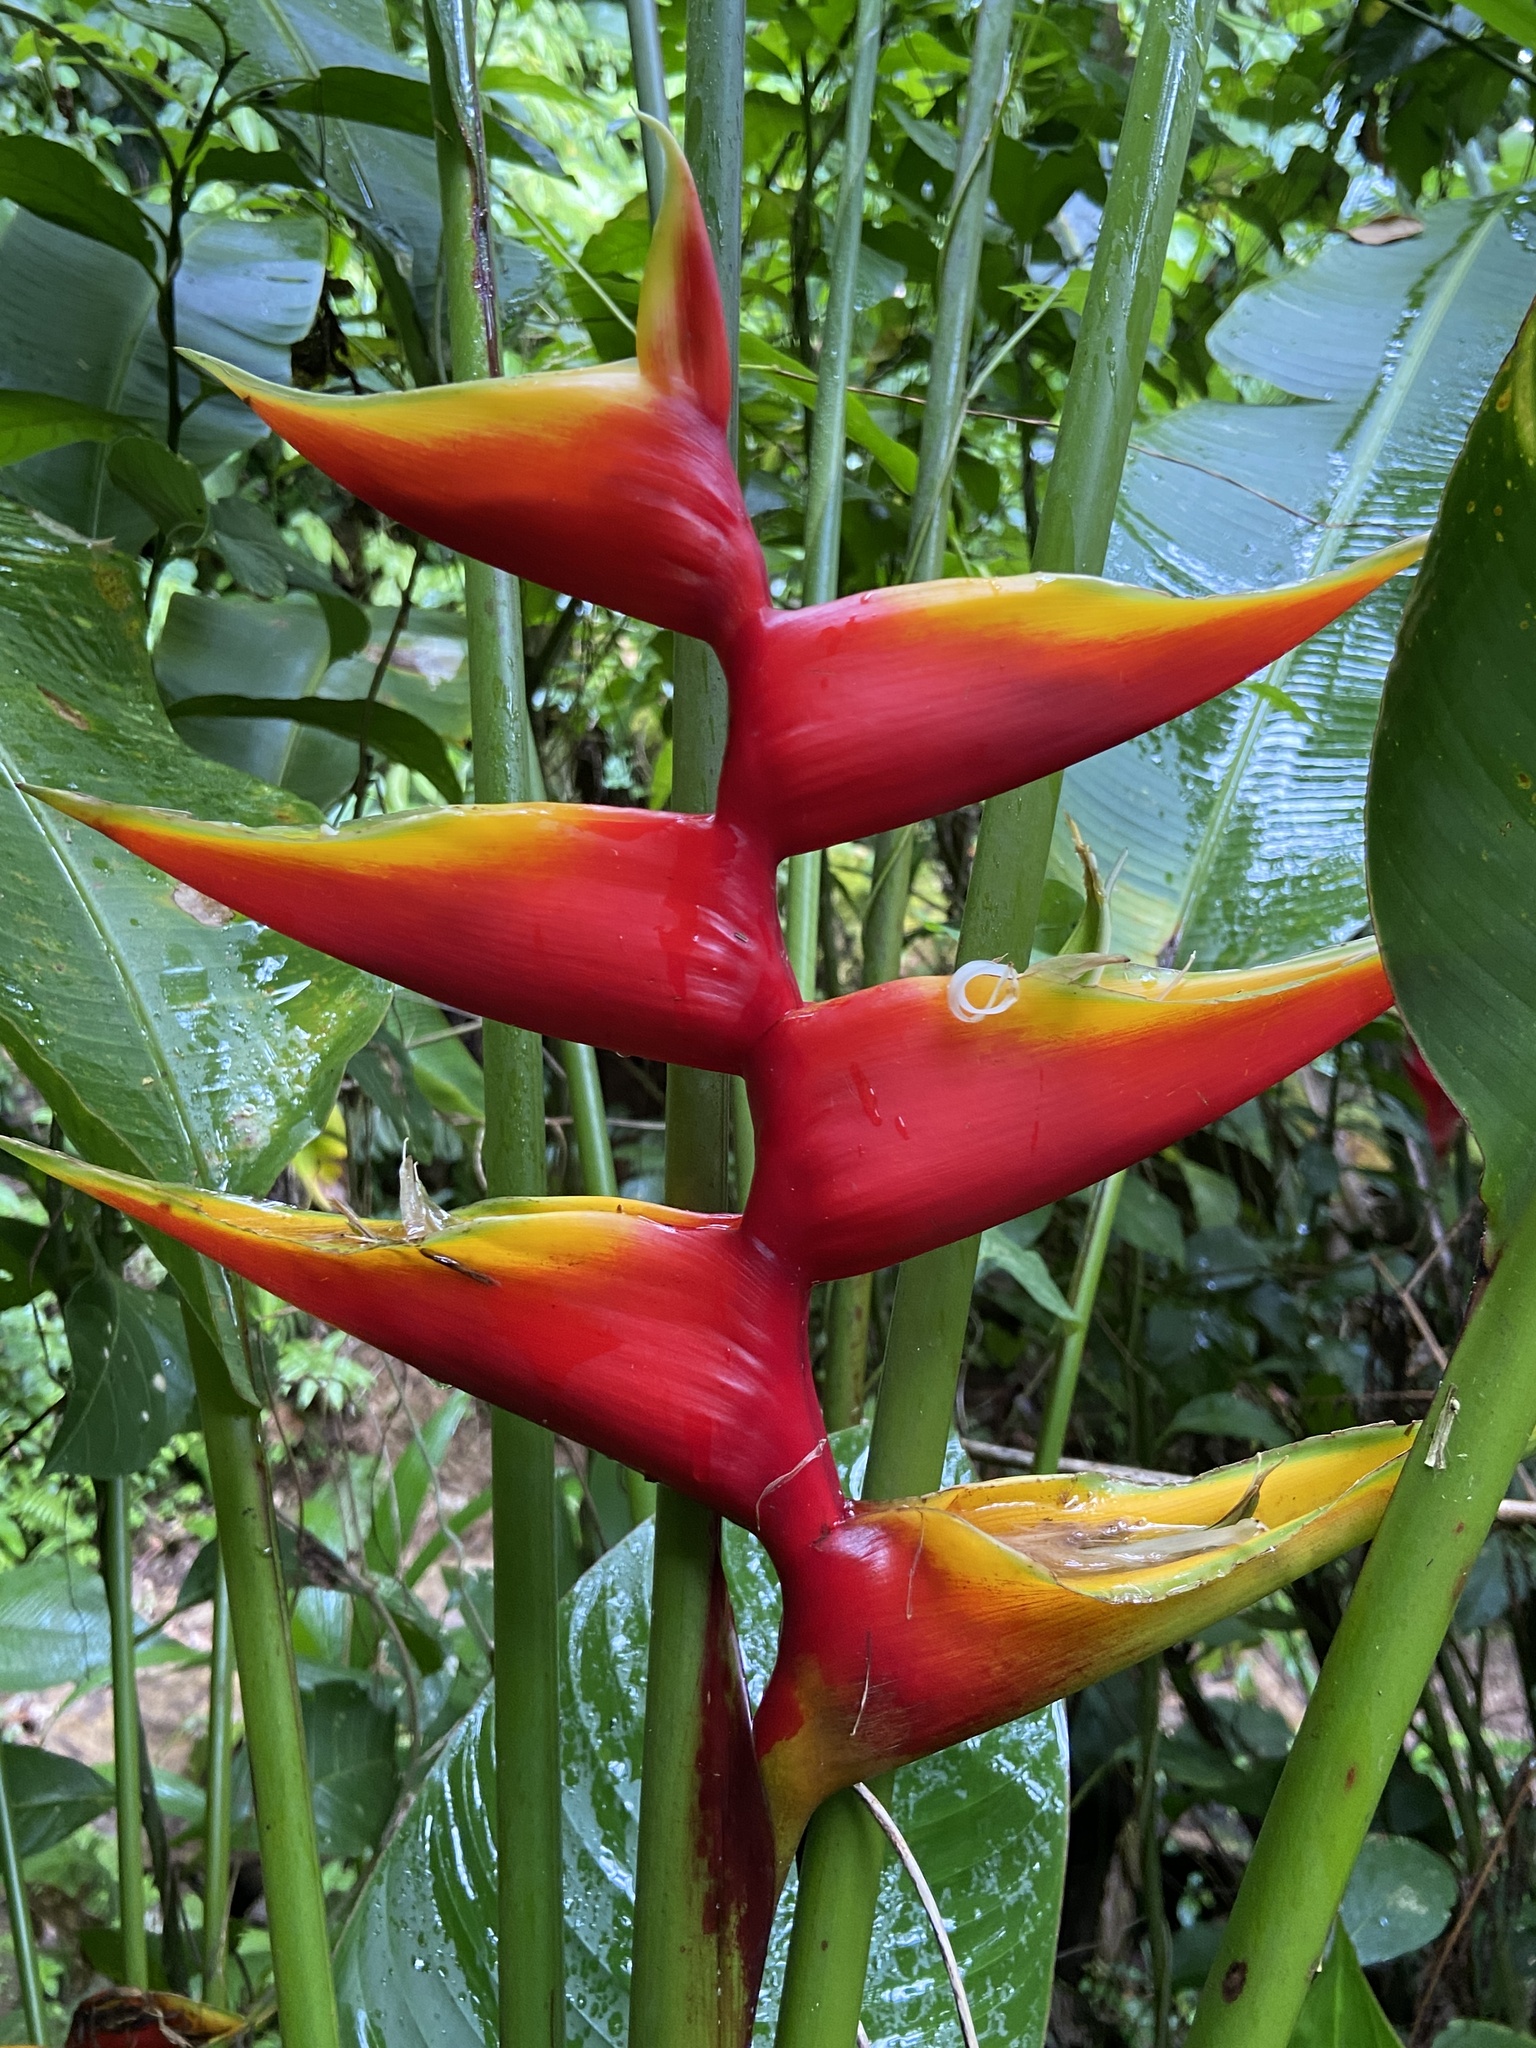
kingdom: Plantae
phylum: Tracheophyta
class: Liliopsida
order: Zingiberales
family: Heliconiaceae
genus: Heliconia
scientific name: Heliconia bihai
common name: Macaw flower
